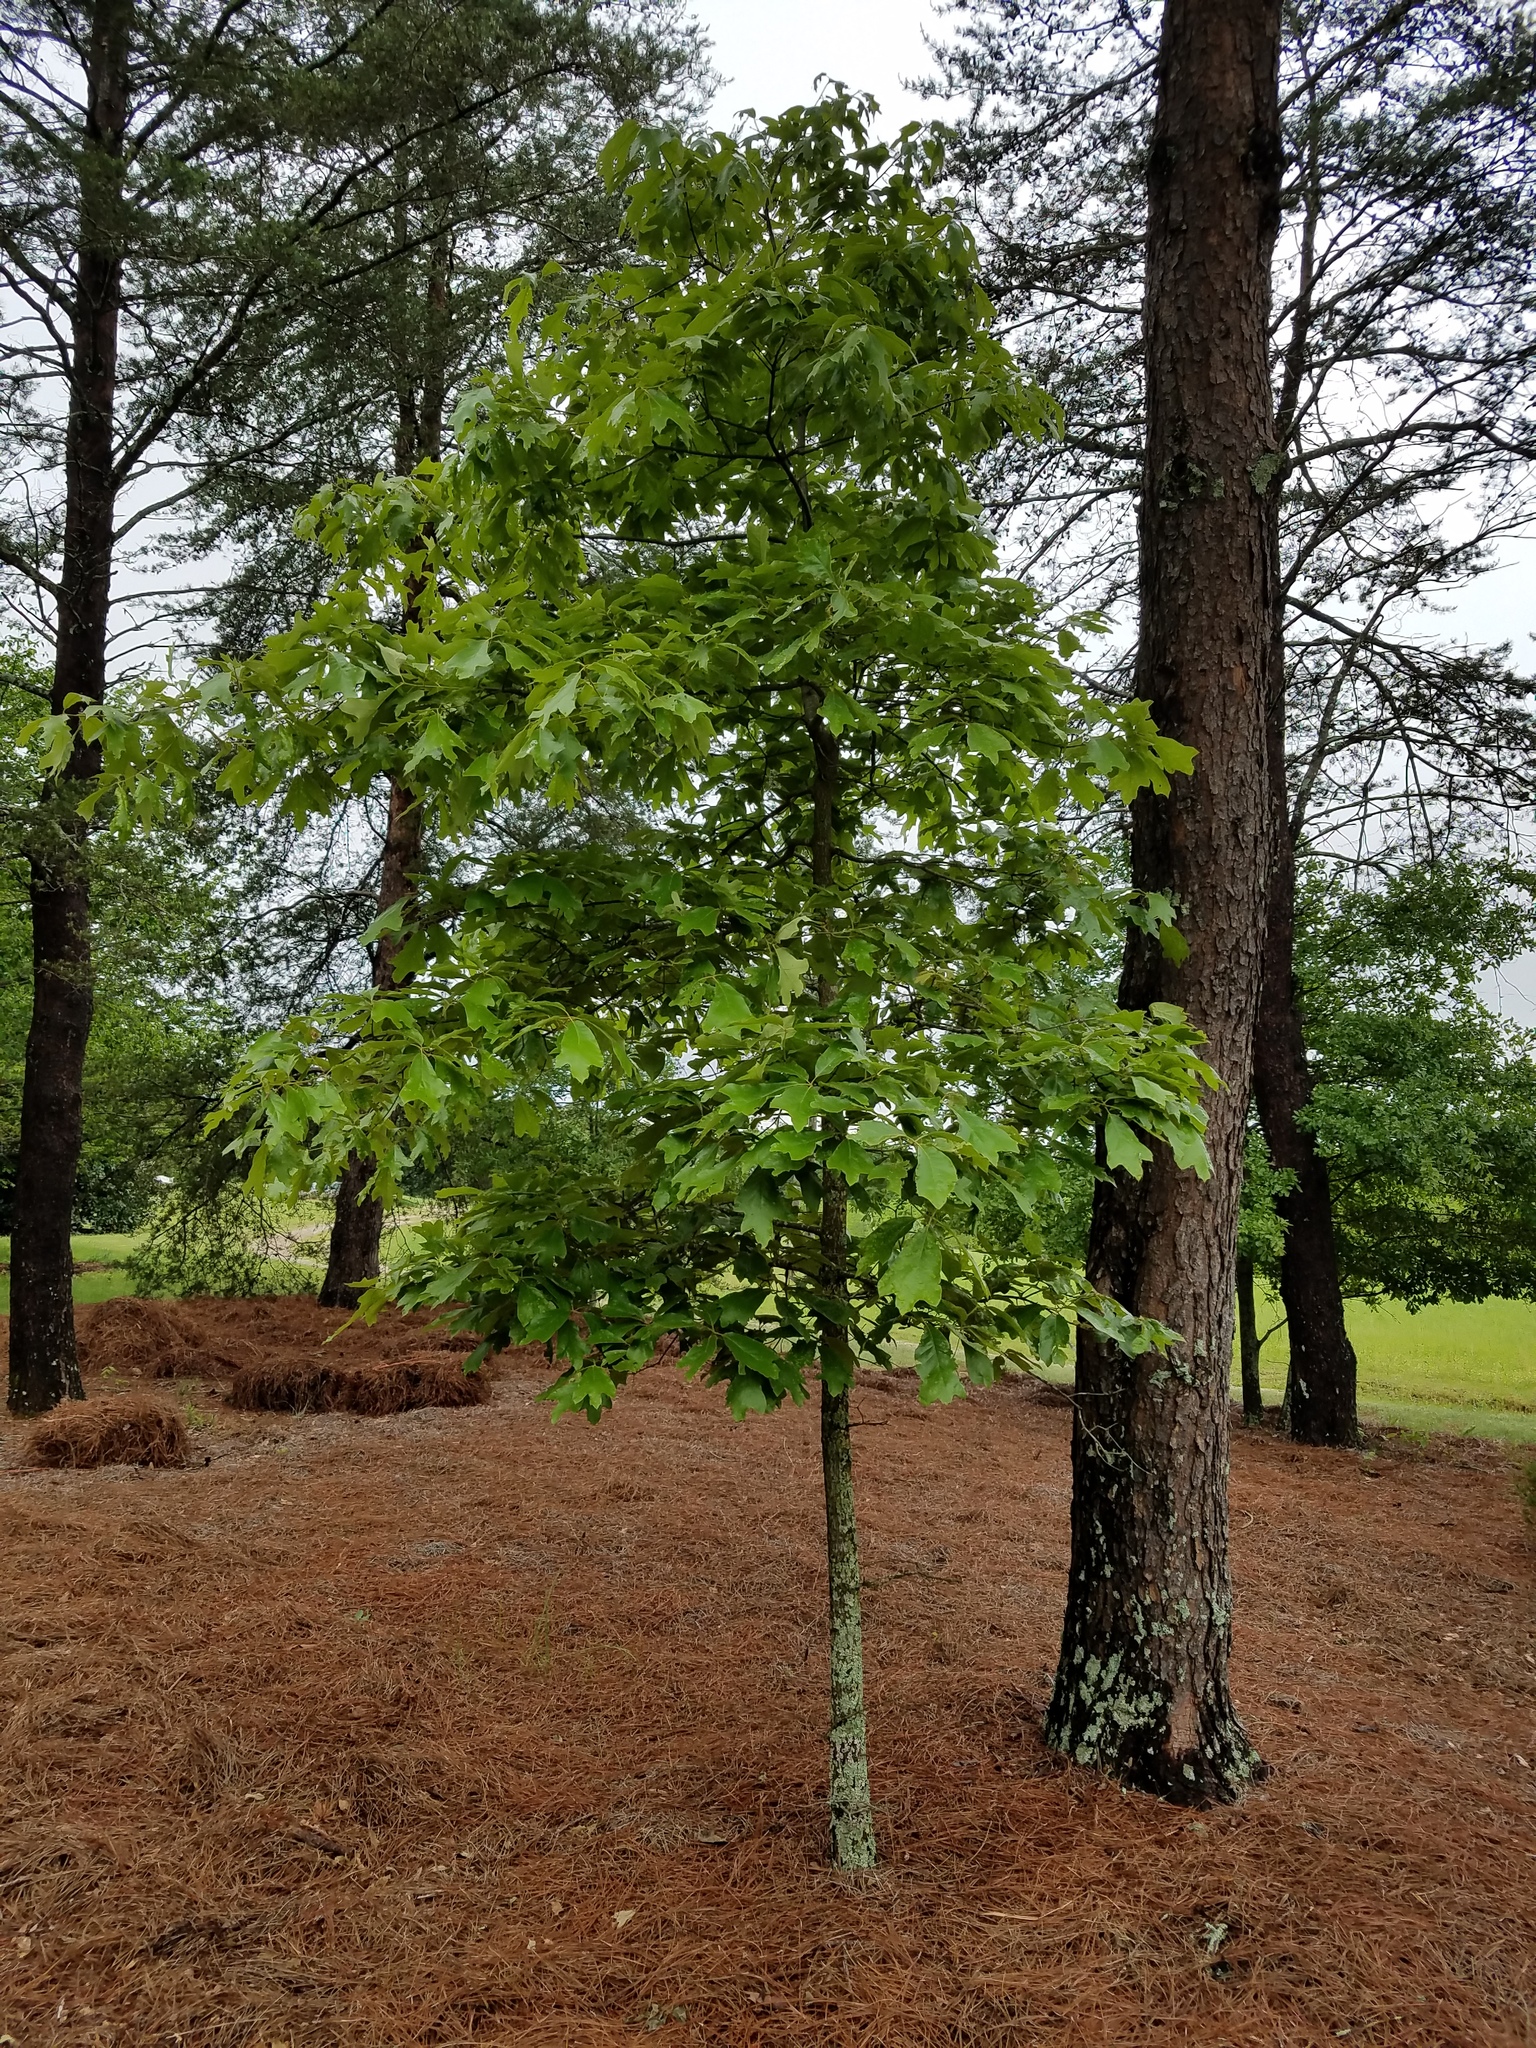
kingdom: Plantae
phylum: Tracheophyta
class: Magnoliopsida
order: Fagales
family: Fagaceae
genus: Quercus
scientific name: Quercus falcata
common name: Southern red oak
